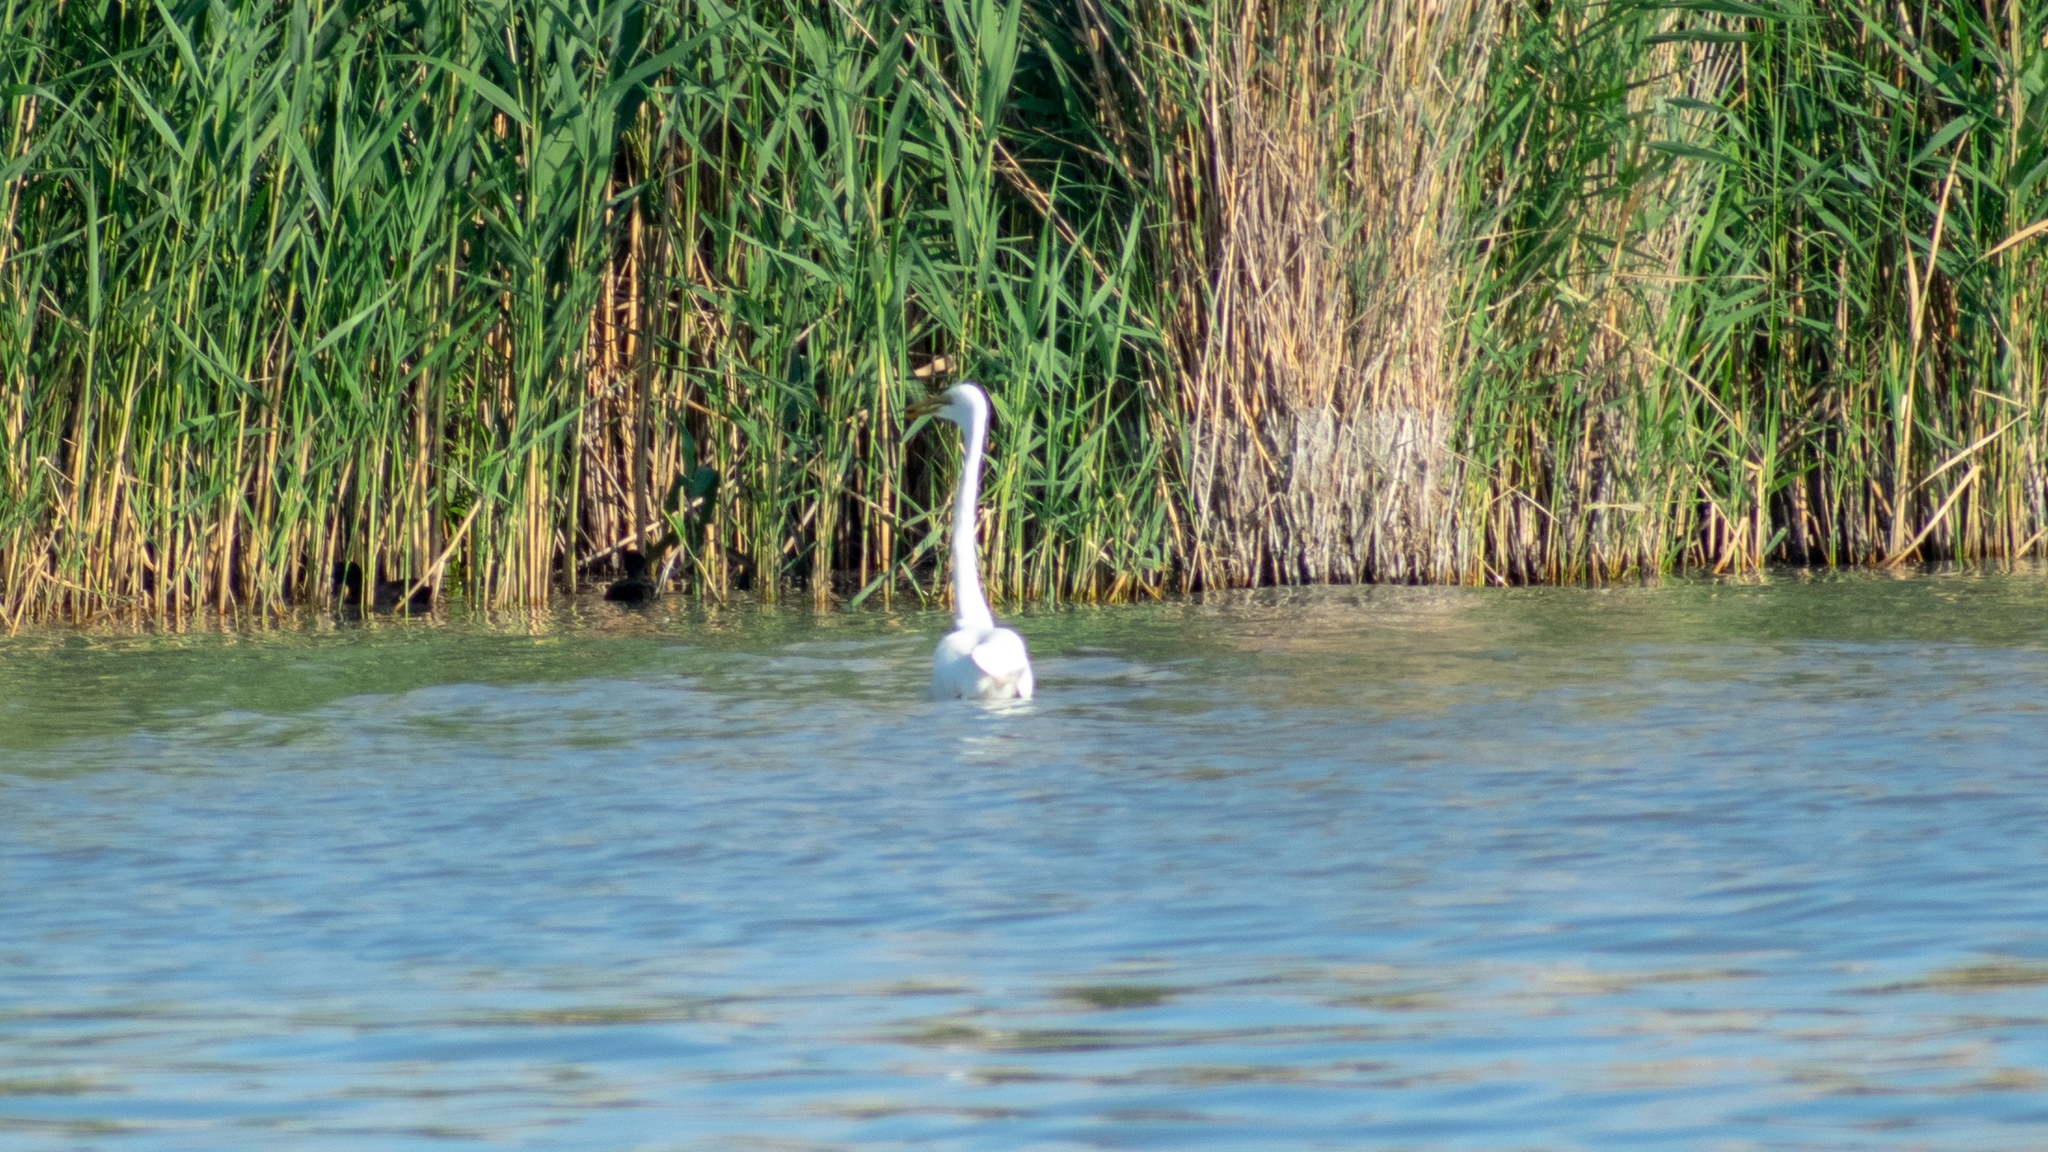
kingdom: Animalia
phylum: Chordata
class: Aves
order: Pelecaniformes
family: Ardeidae
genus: Ardea
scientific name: Ardea alba
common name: Great egret
